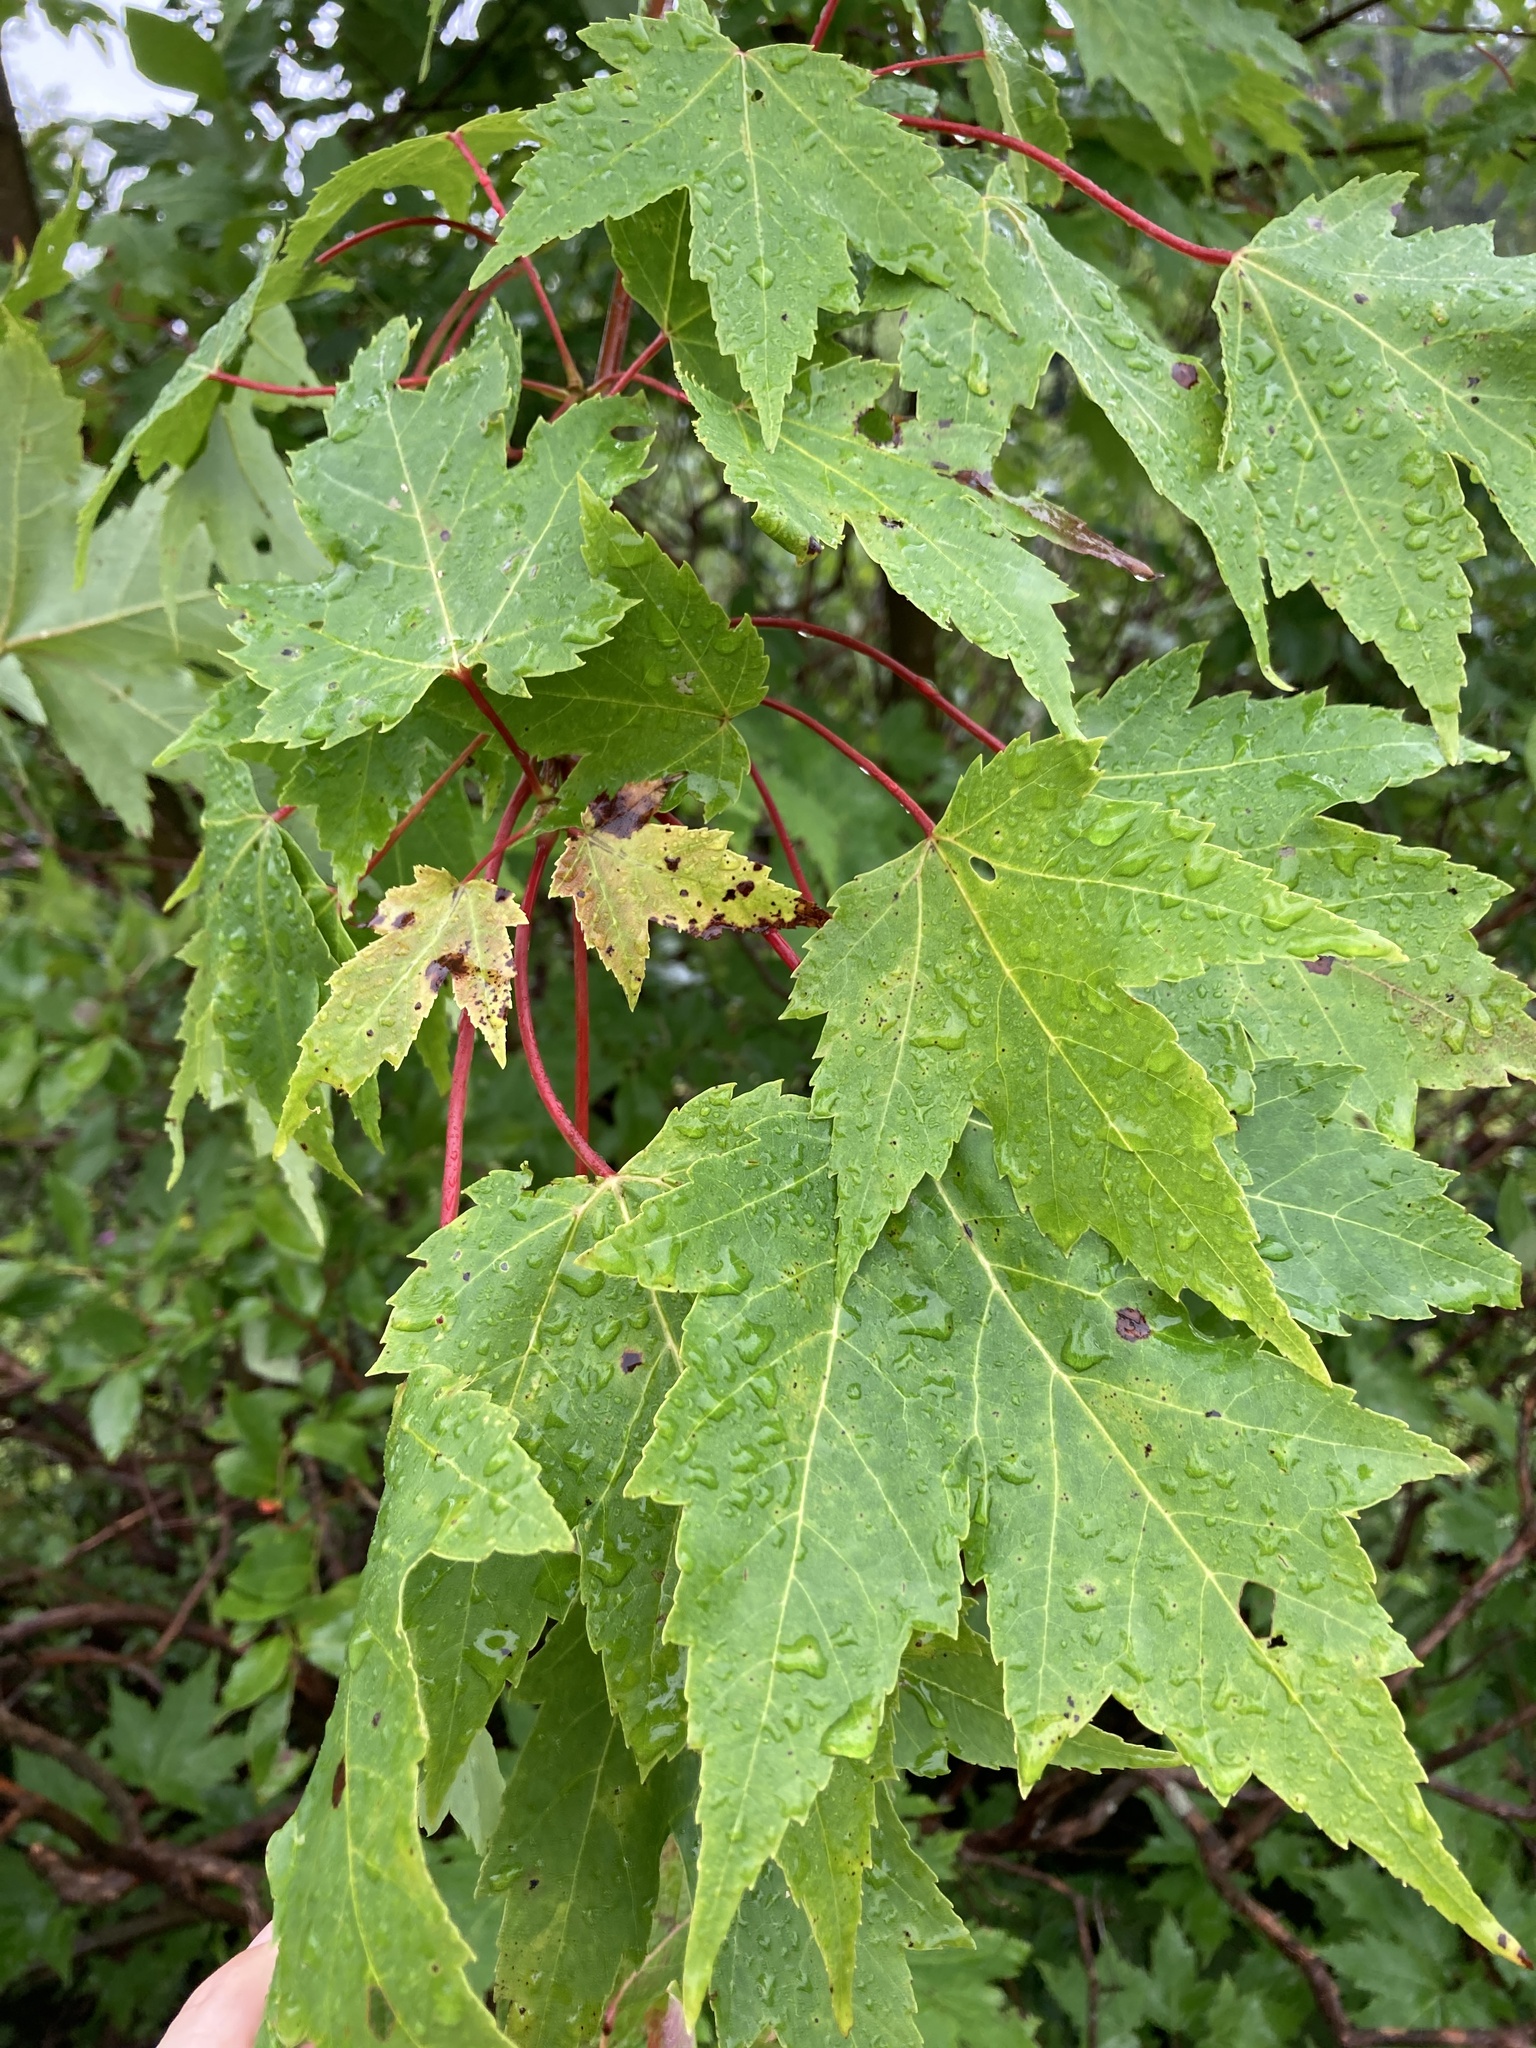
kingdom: Plantae
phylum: Tracheophyta
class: Magnoliopsida
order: Sapindales
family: Sapindaceae
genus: Acer
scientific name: Acer rubrum
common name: Red maple
